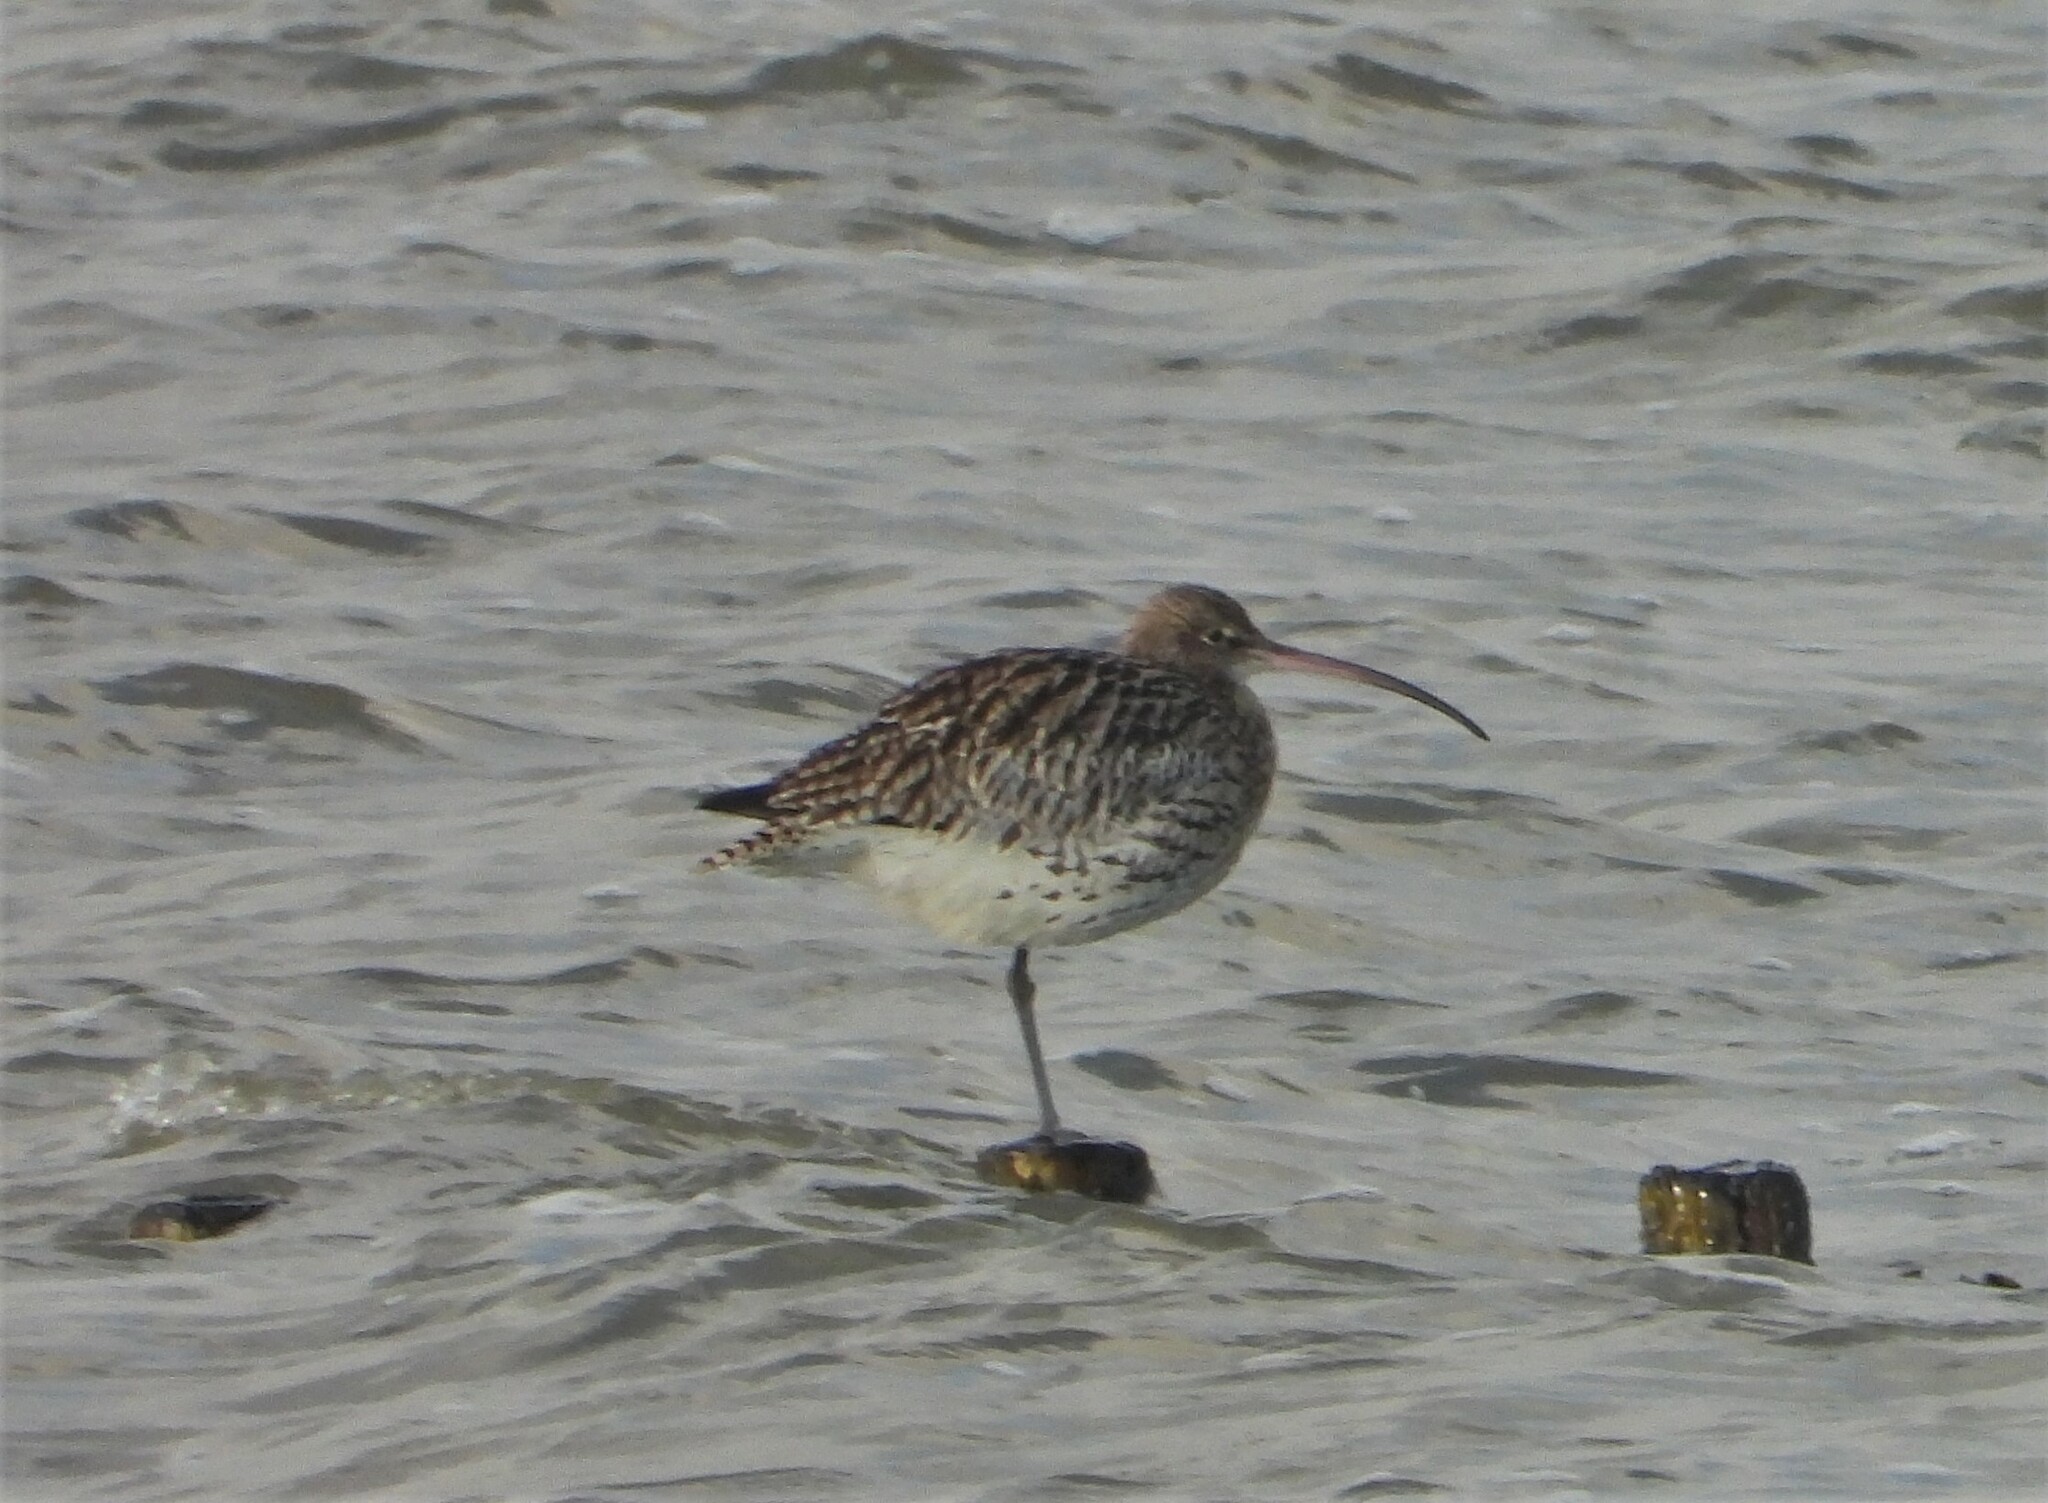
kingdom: Animalia
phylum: Chordata
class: Aves
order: Charadriiformes
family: Scolopacidae
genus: Numenius
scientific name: Numenius arquata
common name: Eurasian curlew
